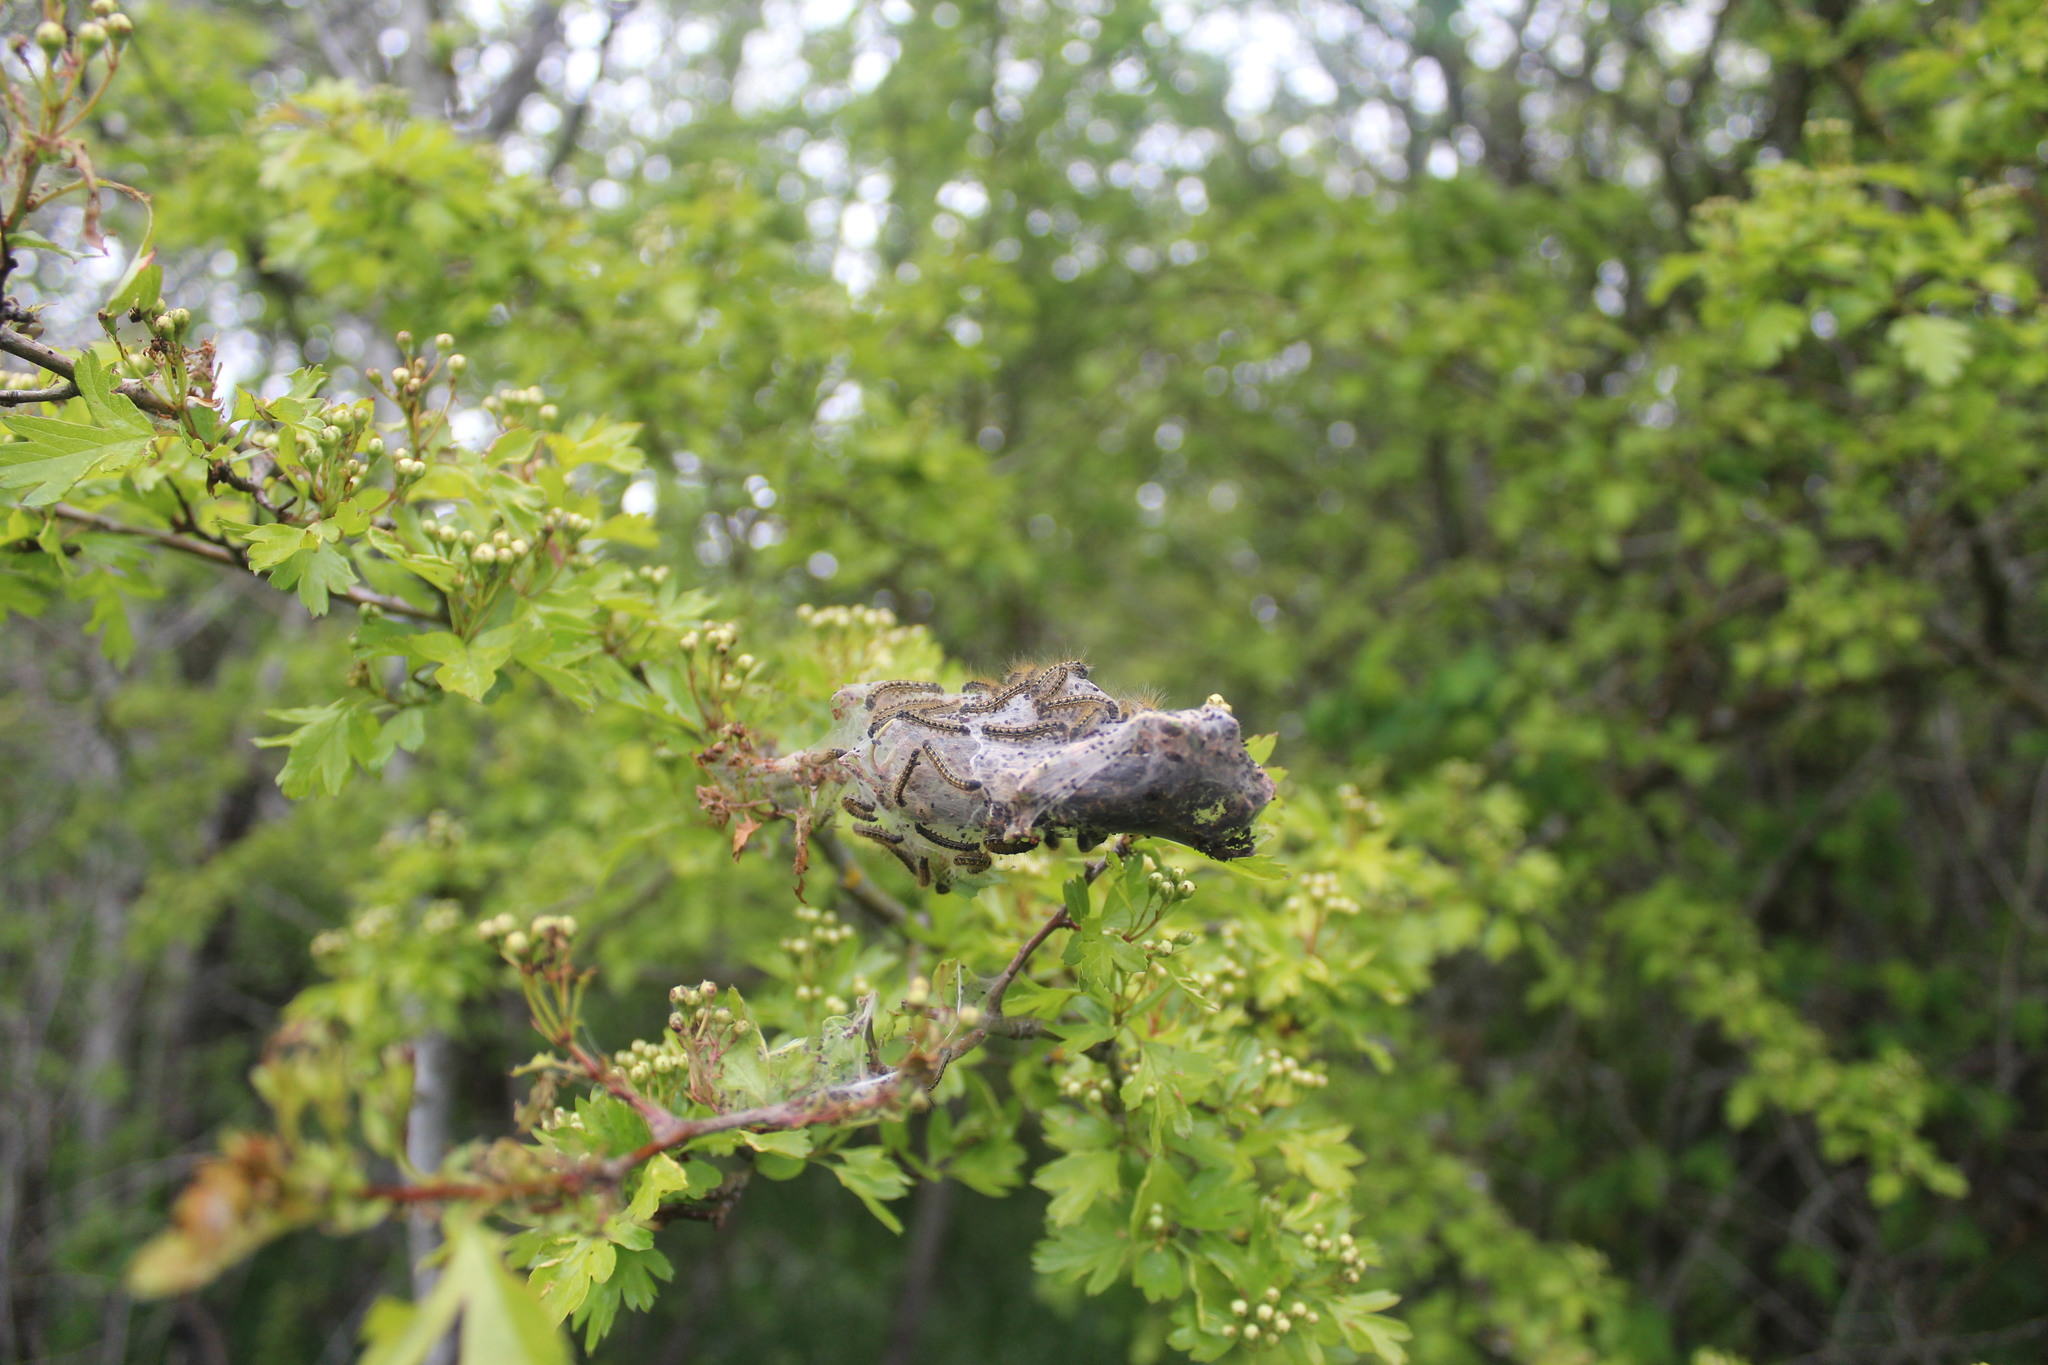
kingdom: Animalia
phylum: Arthropoda
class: Insecta
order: Lepidoptera
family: Lasiocampidae
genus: Malacosoma
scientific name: Malacosoma californica
